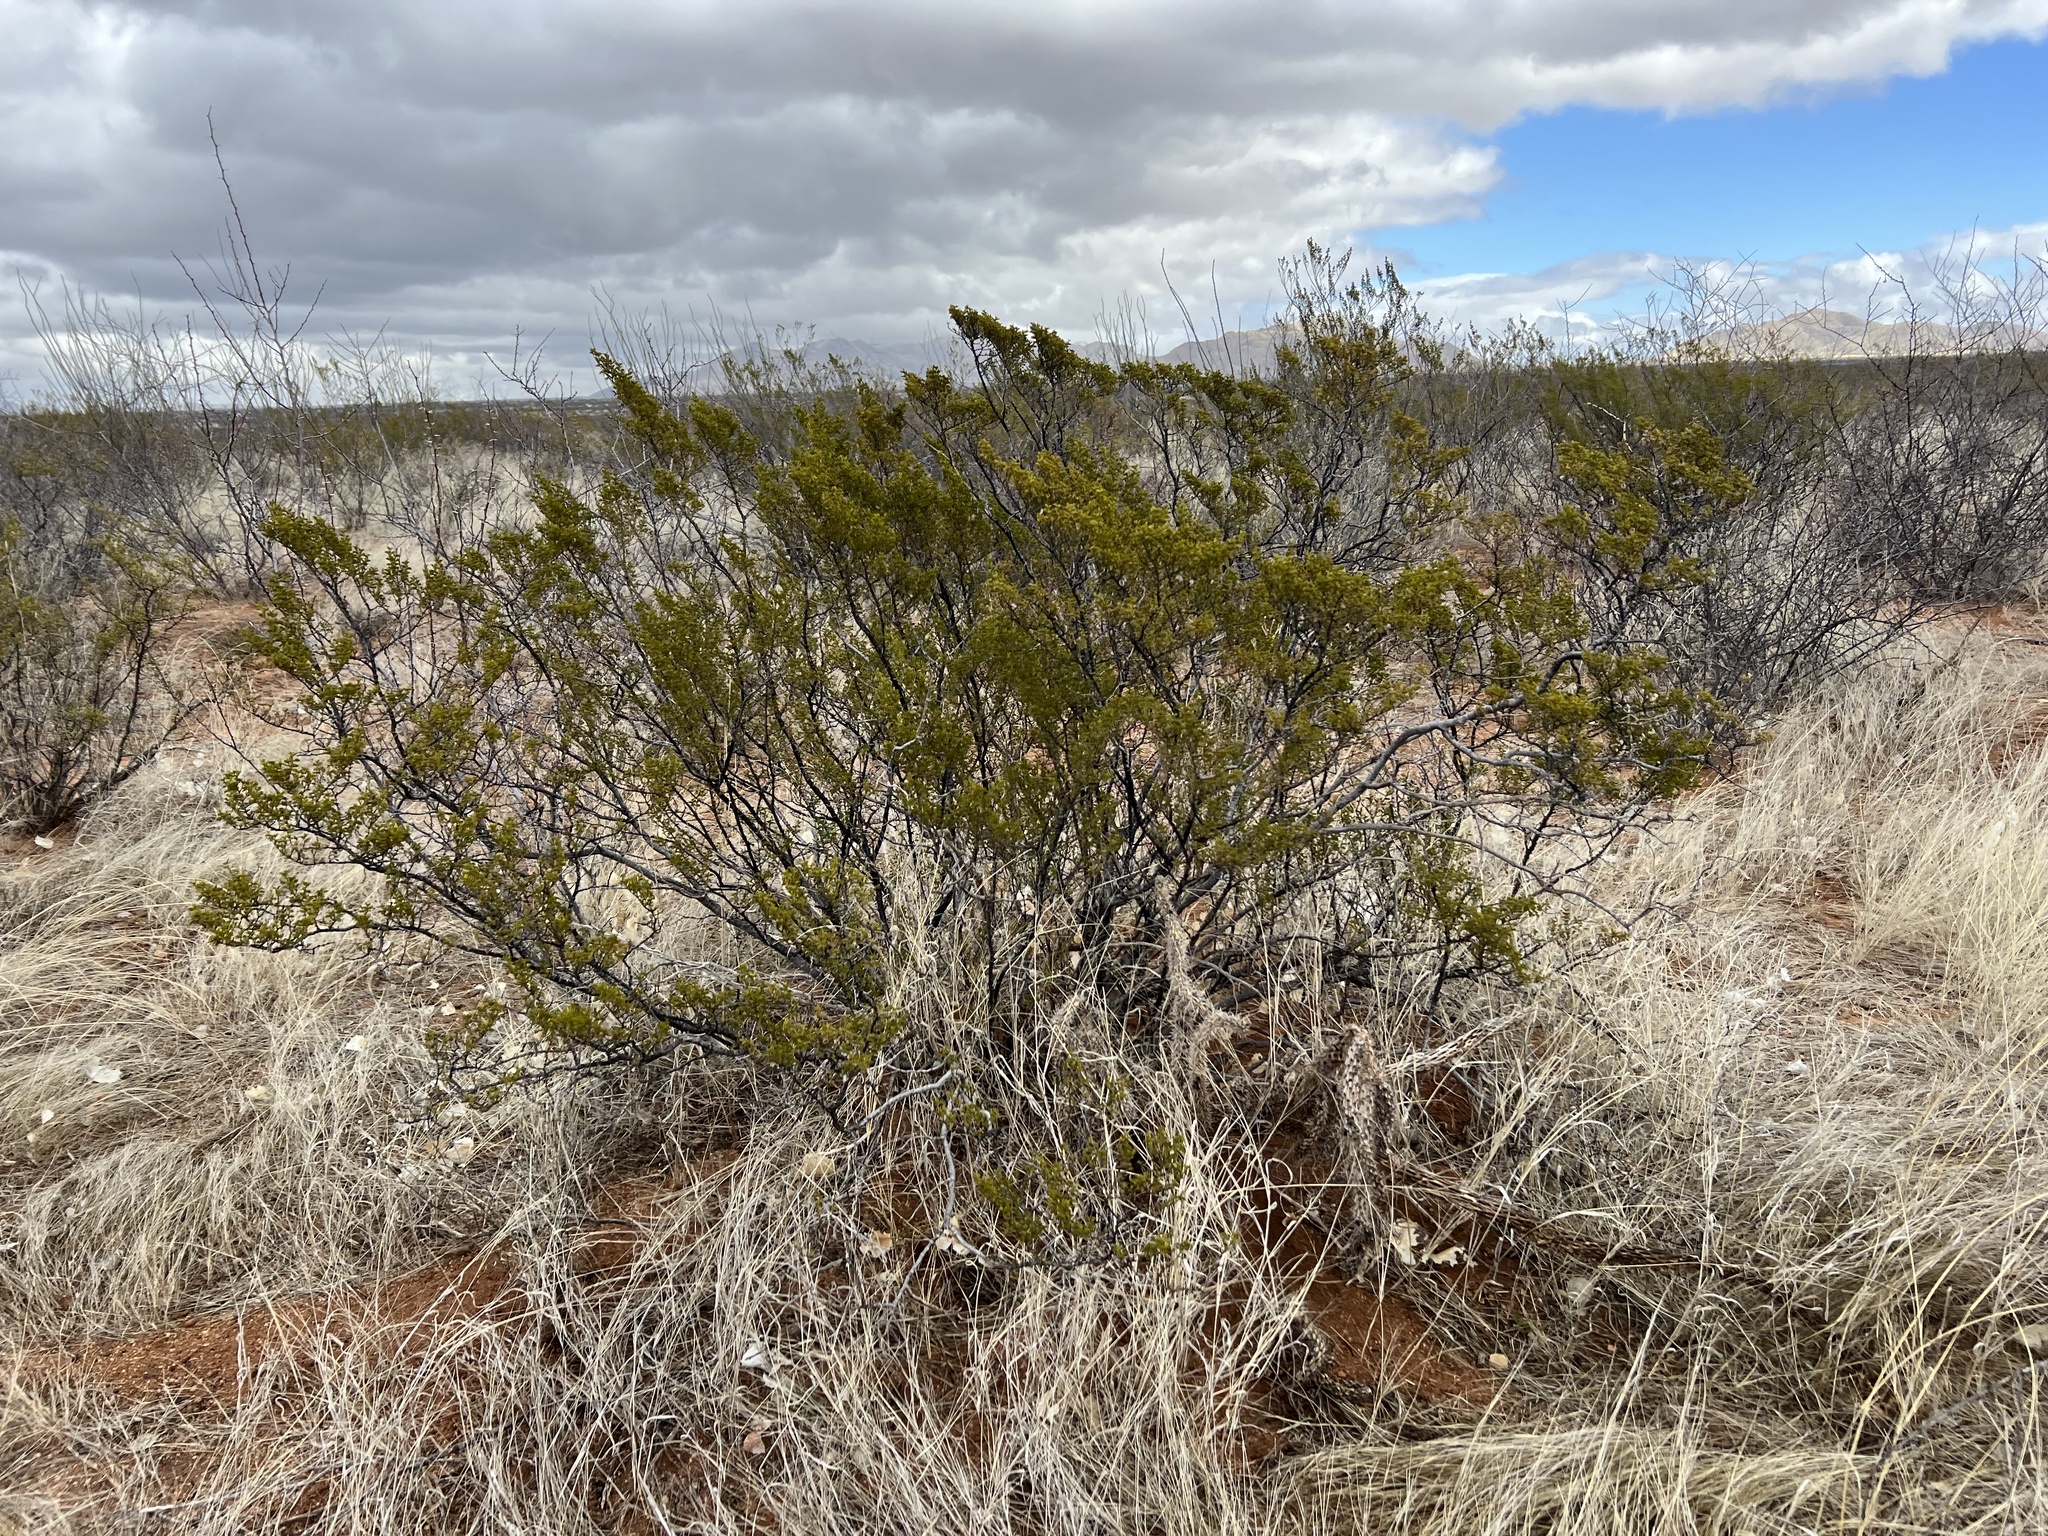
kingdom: Plantae
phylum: Tracheophyta
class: Magnoliopsida
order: Zygophyllales
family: Zygophyllaceae
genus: Larrea
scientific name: Larrea tridentata
